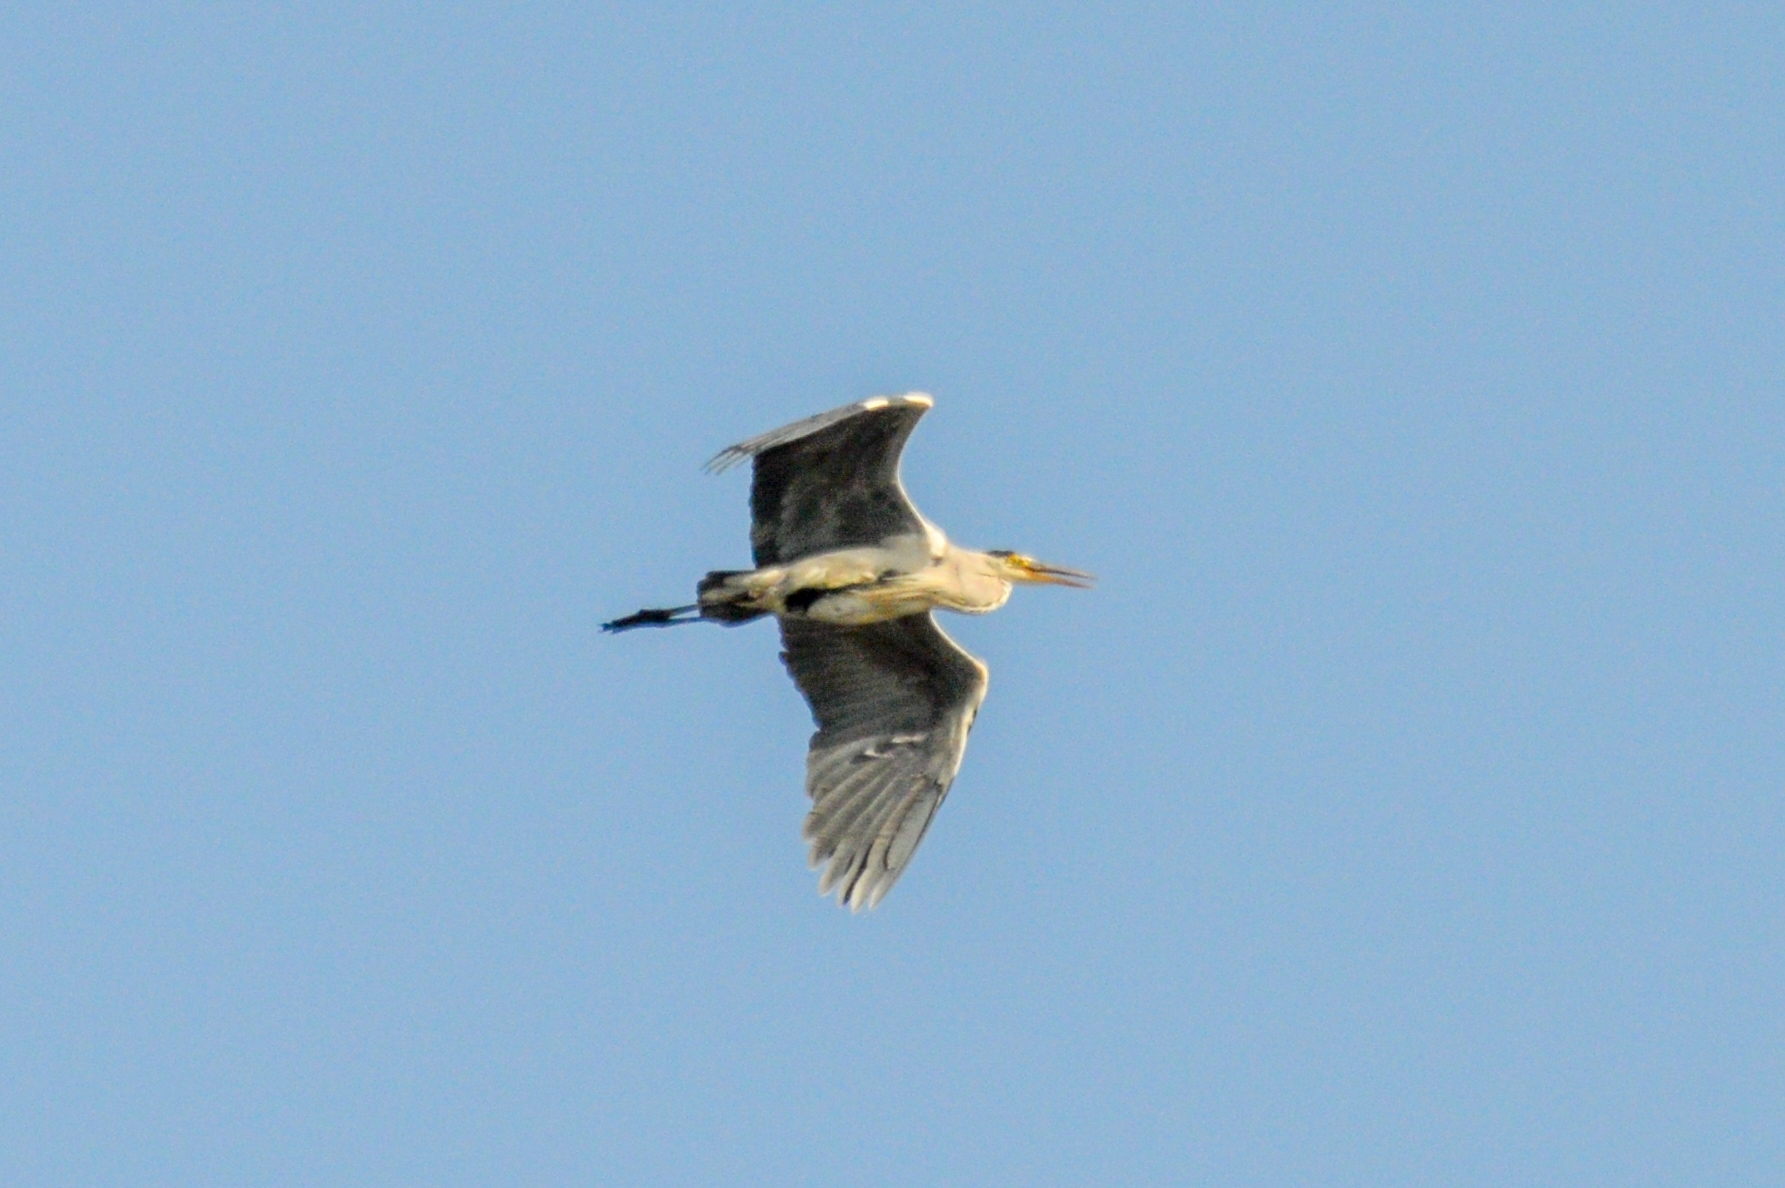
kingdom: Animalia
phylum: Chordata
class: Aves
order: Pelecaniformes
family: Ardeidae
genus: Ardea
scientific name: Ardea cinerea
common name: Grey heron
